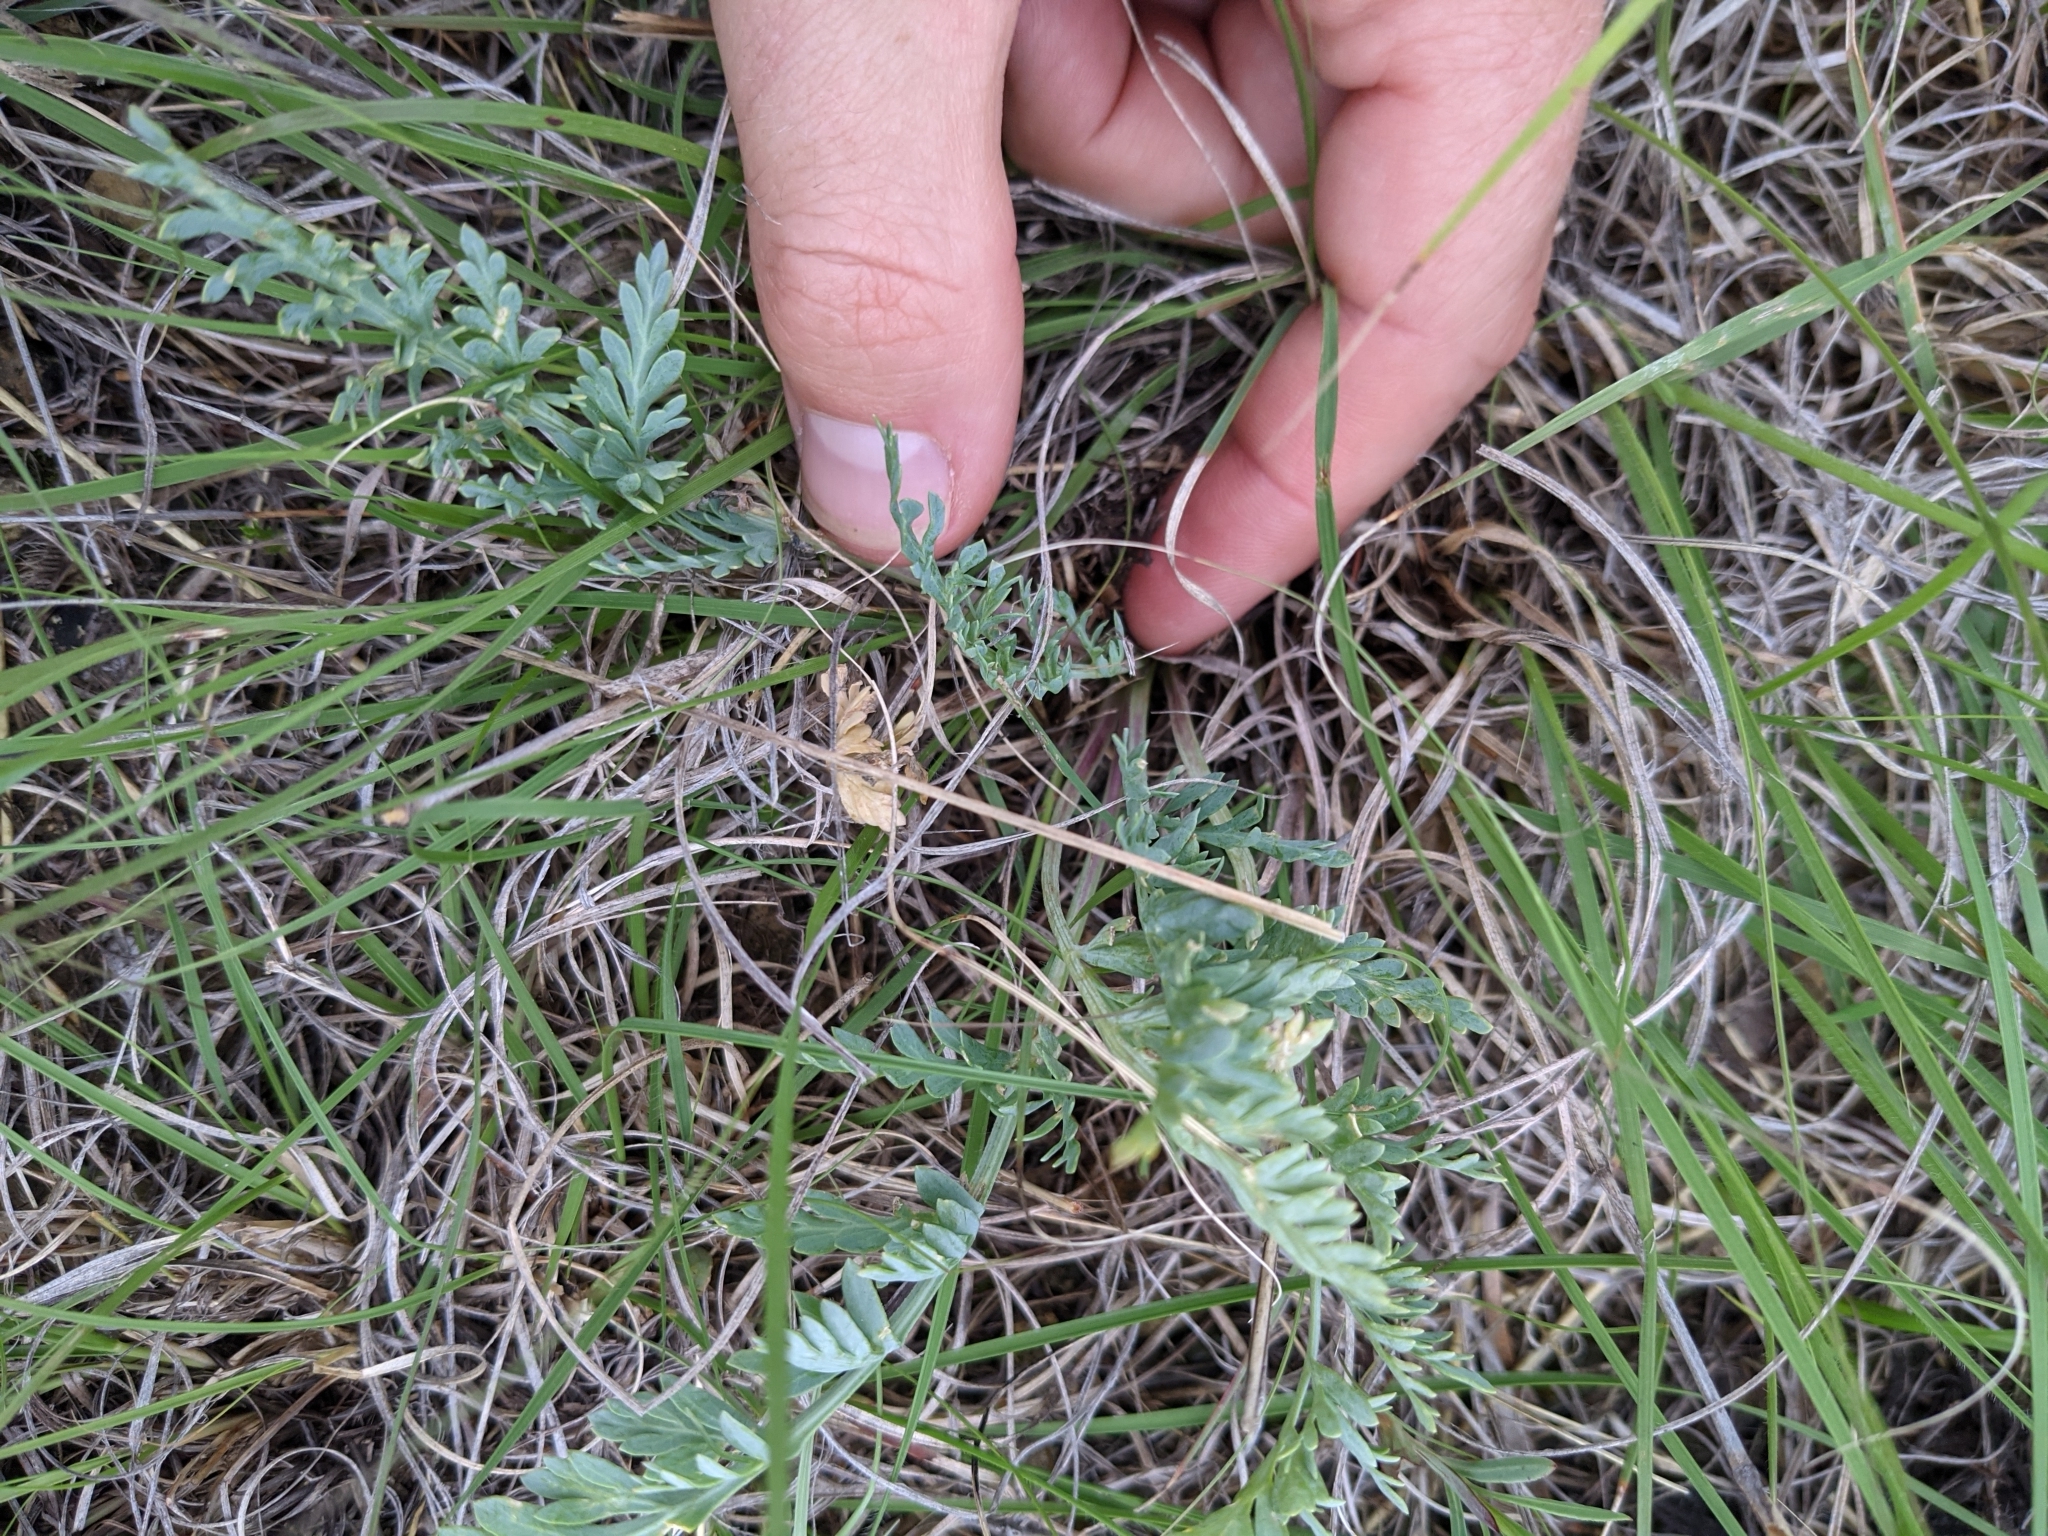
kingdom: Plantae
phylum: Tracheophyta
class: Magnoliopsida
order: Apiales
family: Apiaceae
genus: Vesper
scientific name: Vesper macrorhizus
